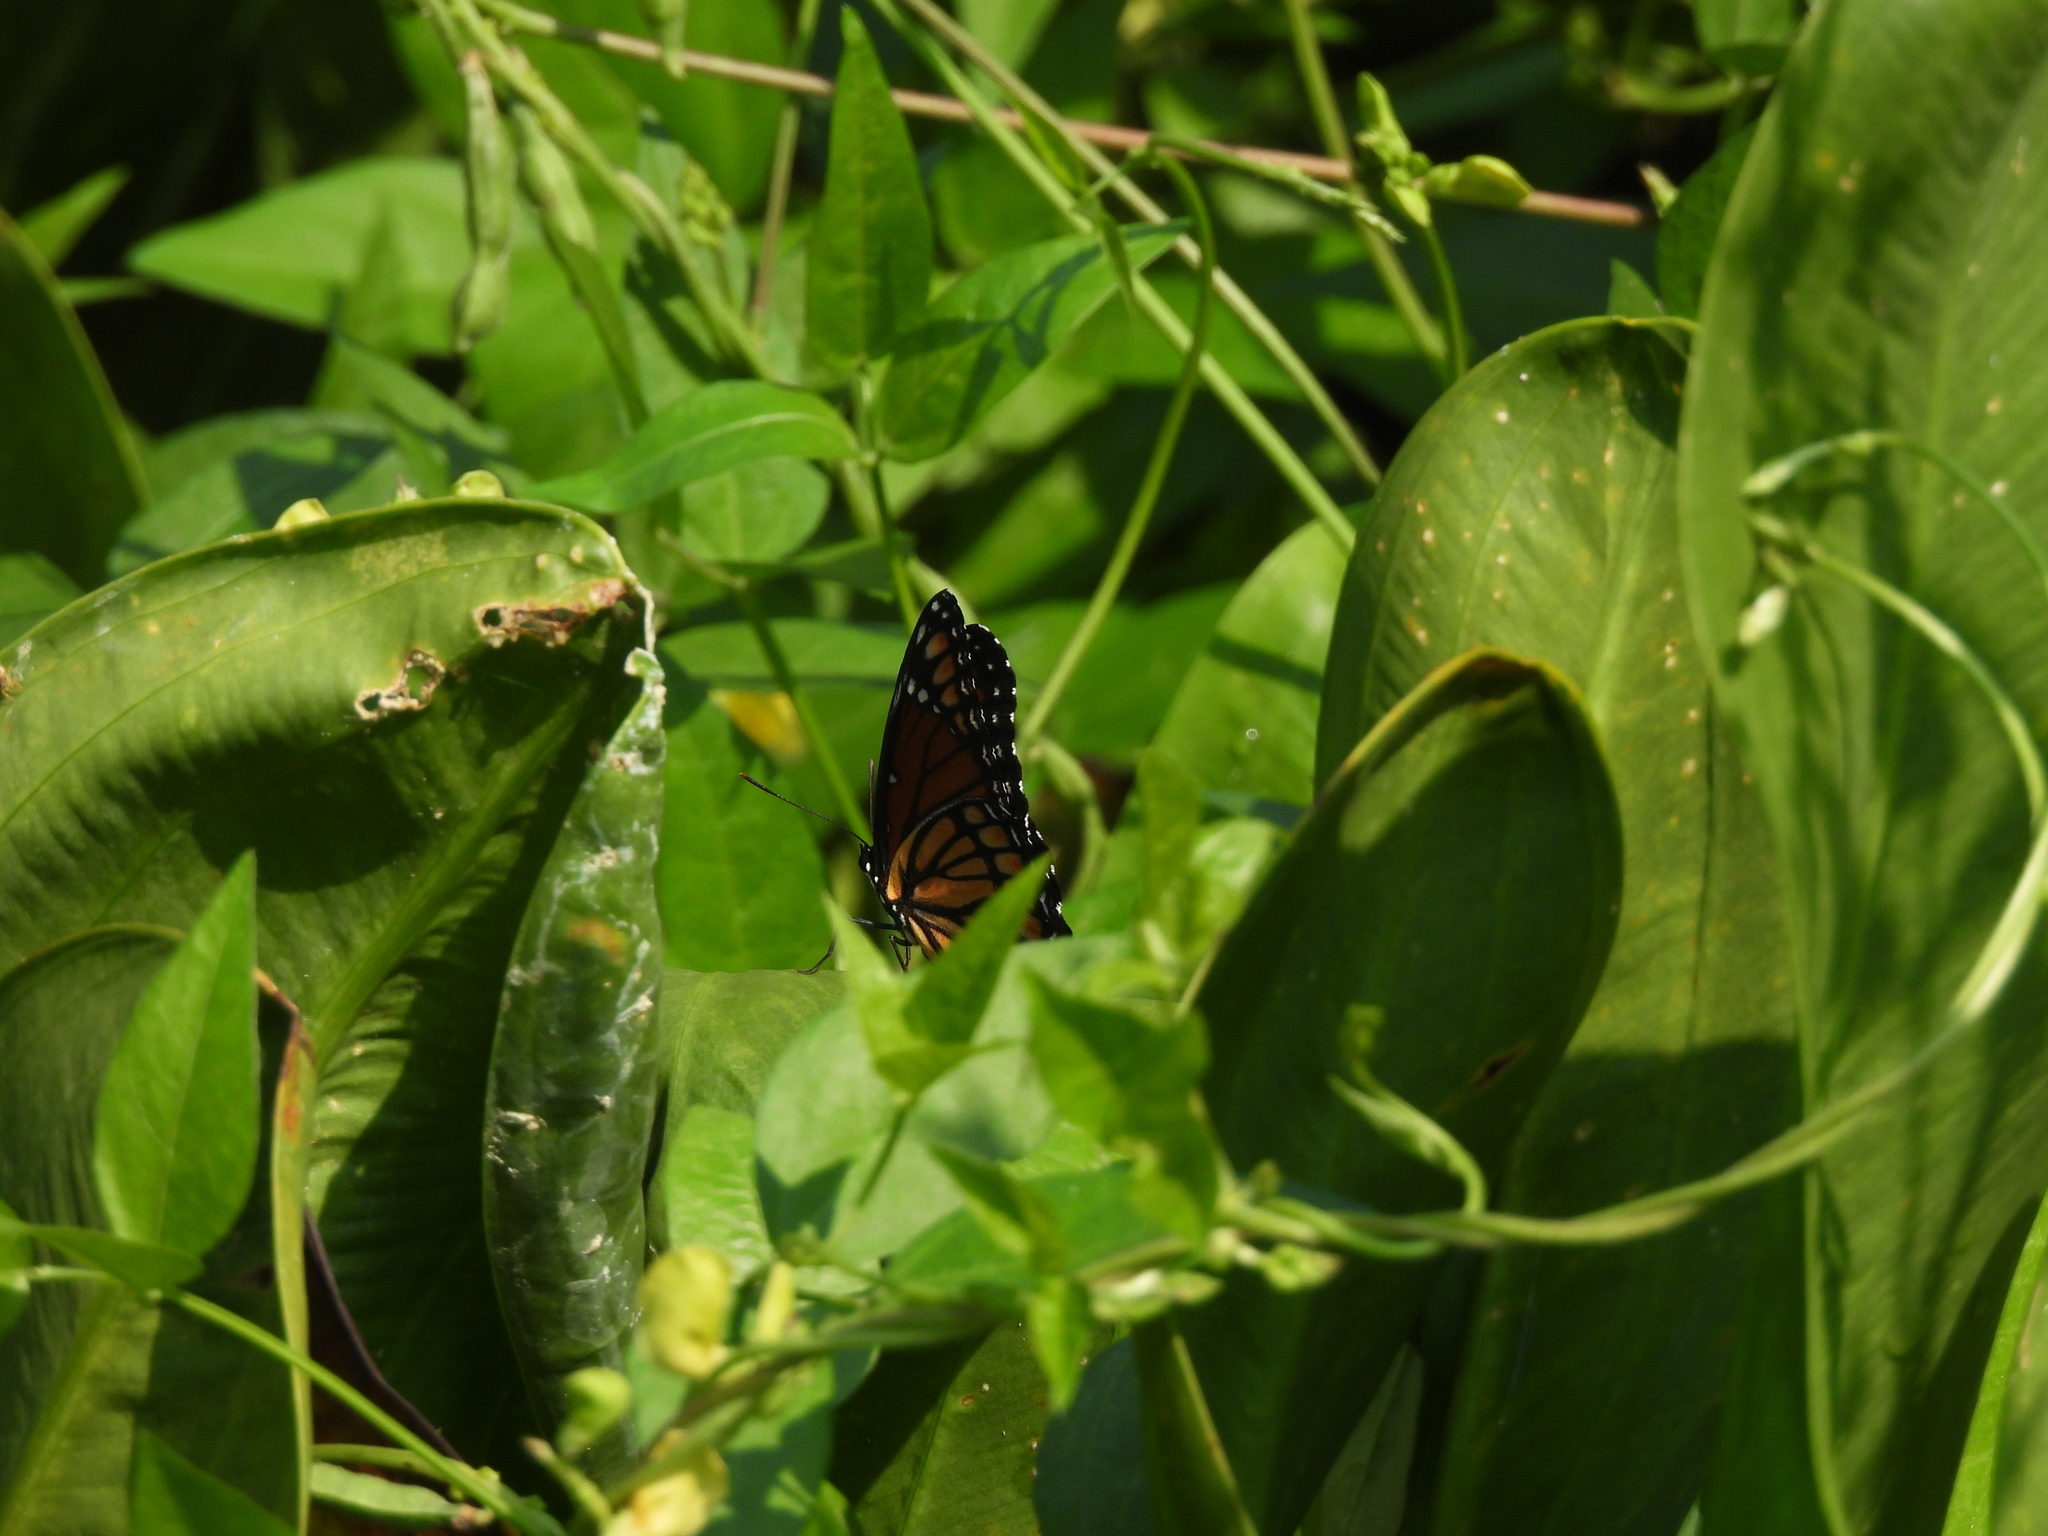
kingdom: Animalia
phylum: Arthropoda
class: Insecta
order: Lepidoptera
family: Nymphalidae
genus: Limenitis
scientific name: Limenitis archippus
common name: Viceroy
